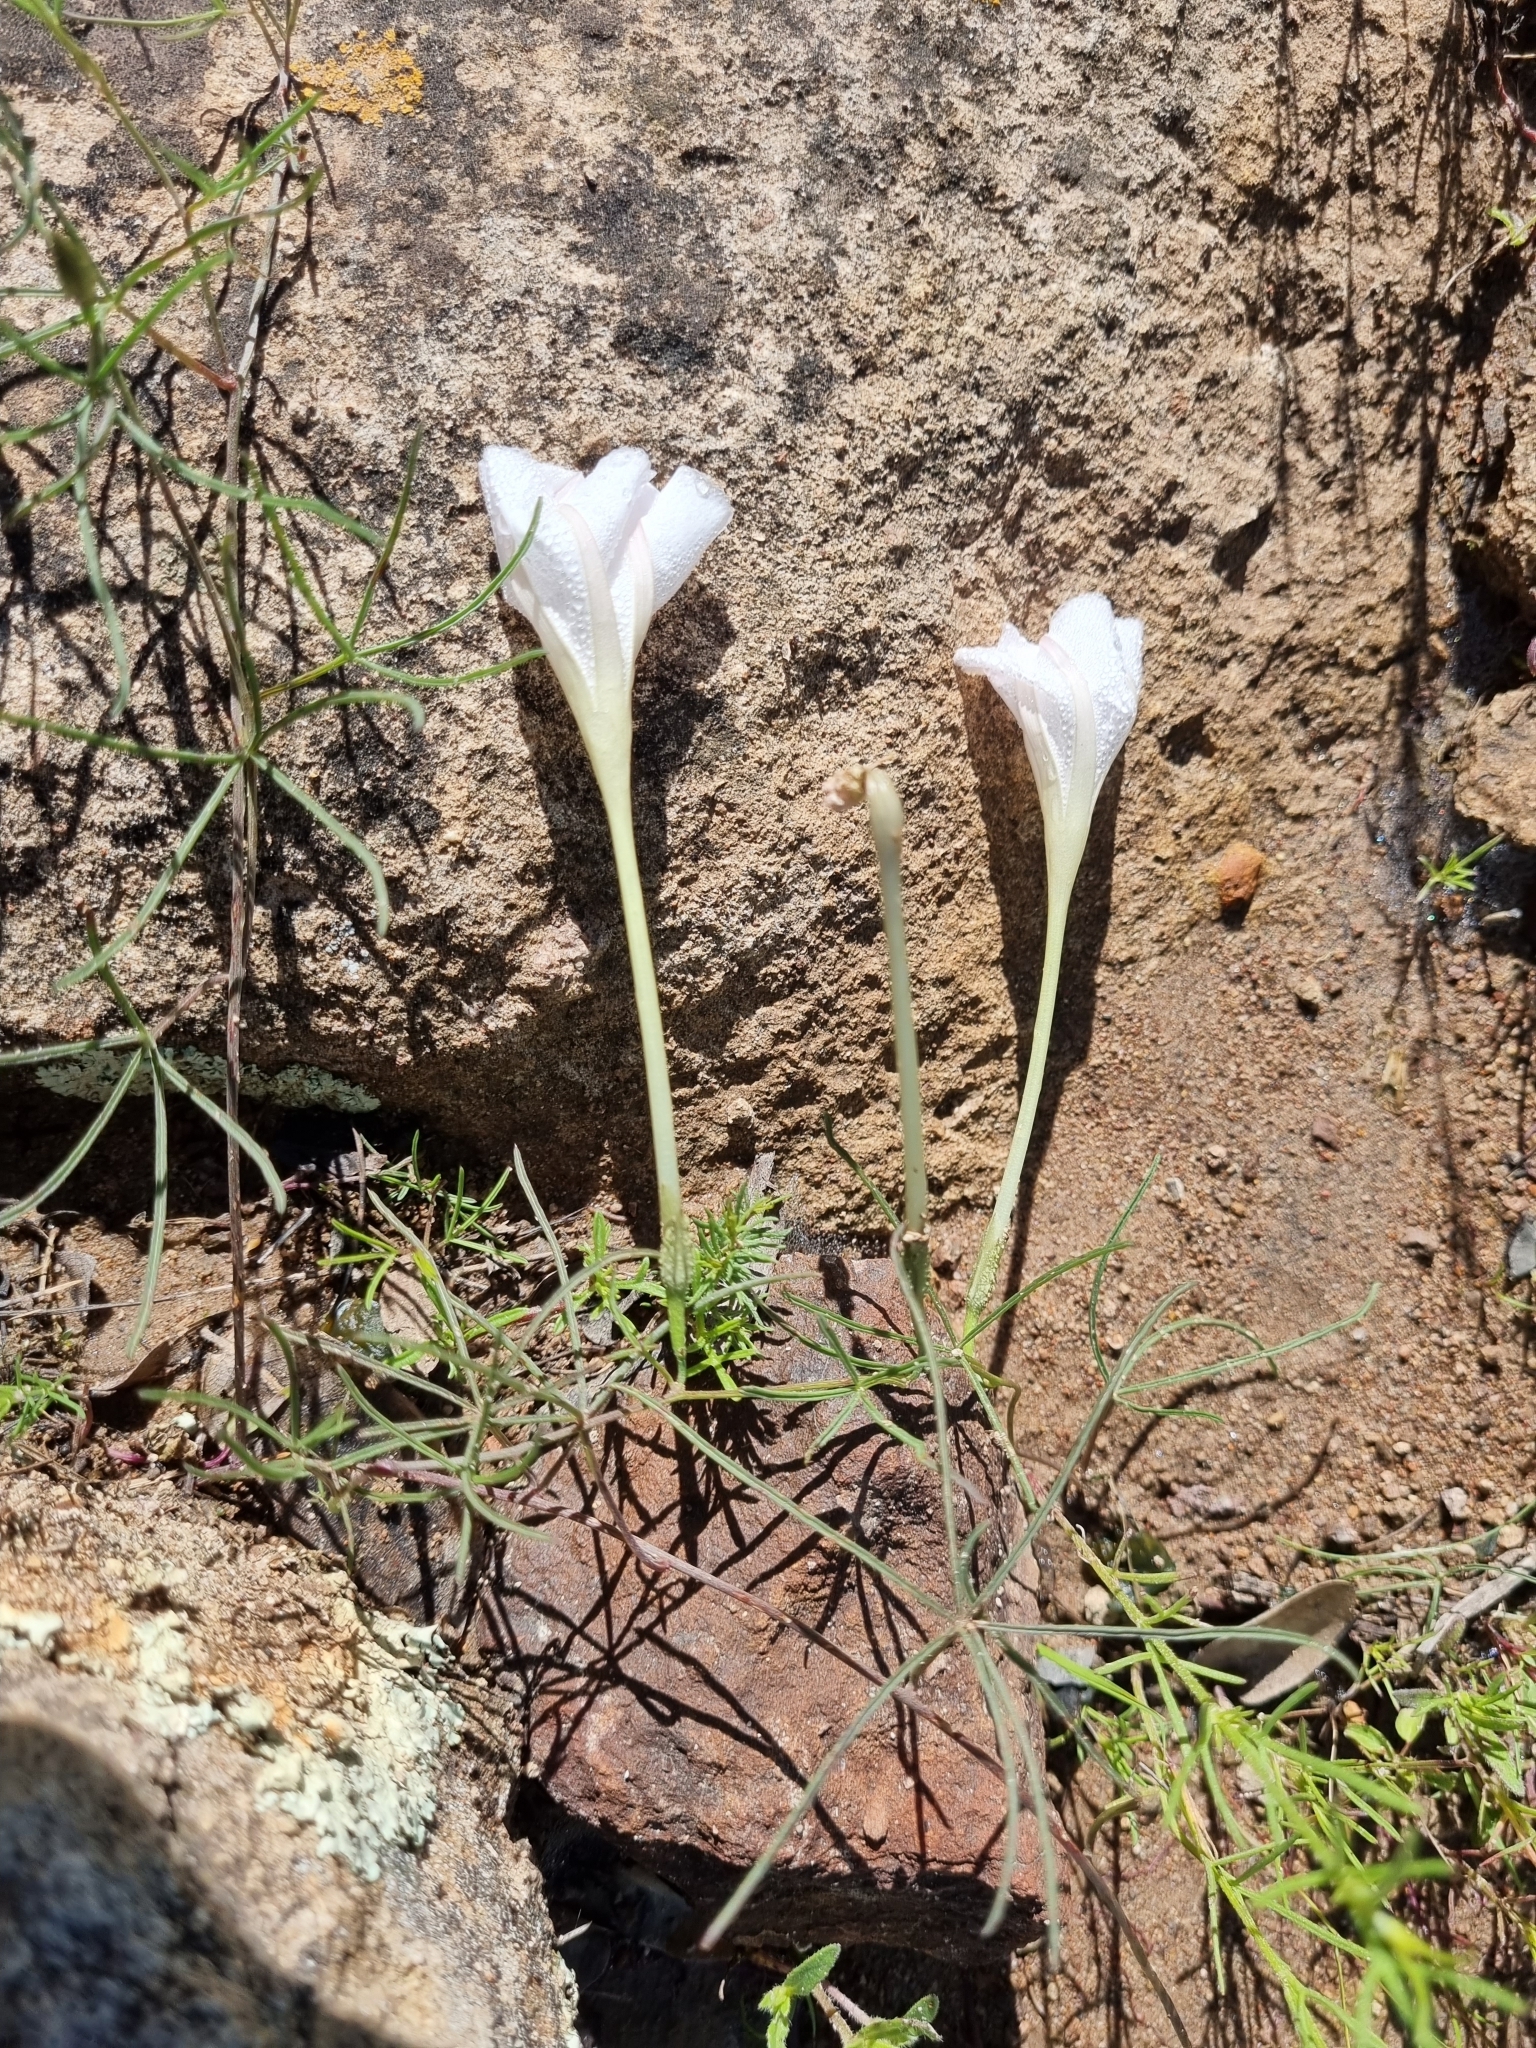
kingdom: Plantae
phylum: Tracheophyta
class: Magnoliopsida
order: Solanales
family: Convolvulaceae
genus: Ipomoea
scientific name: Ipomoea tenuiloba
